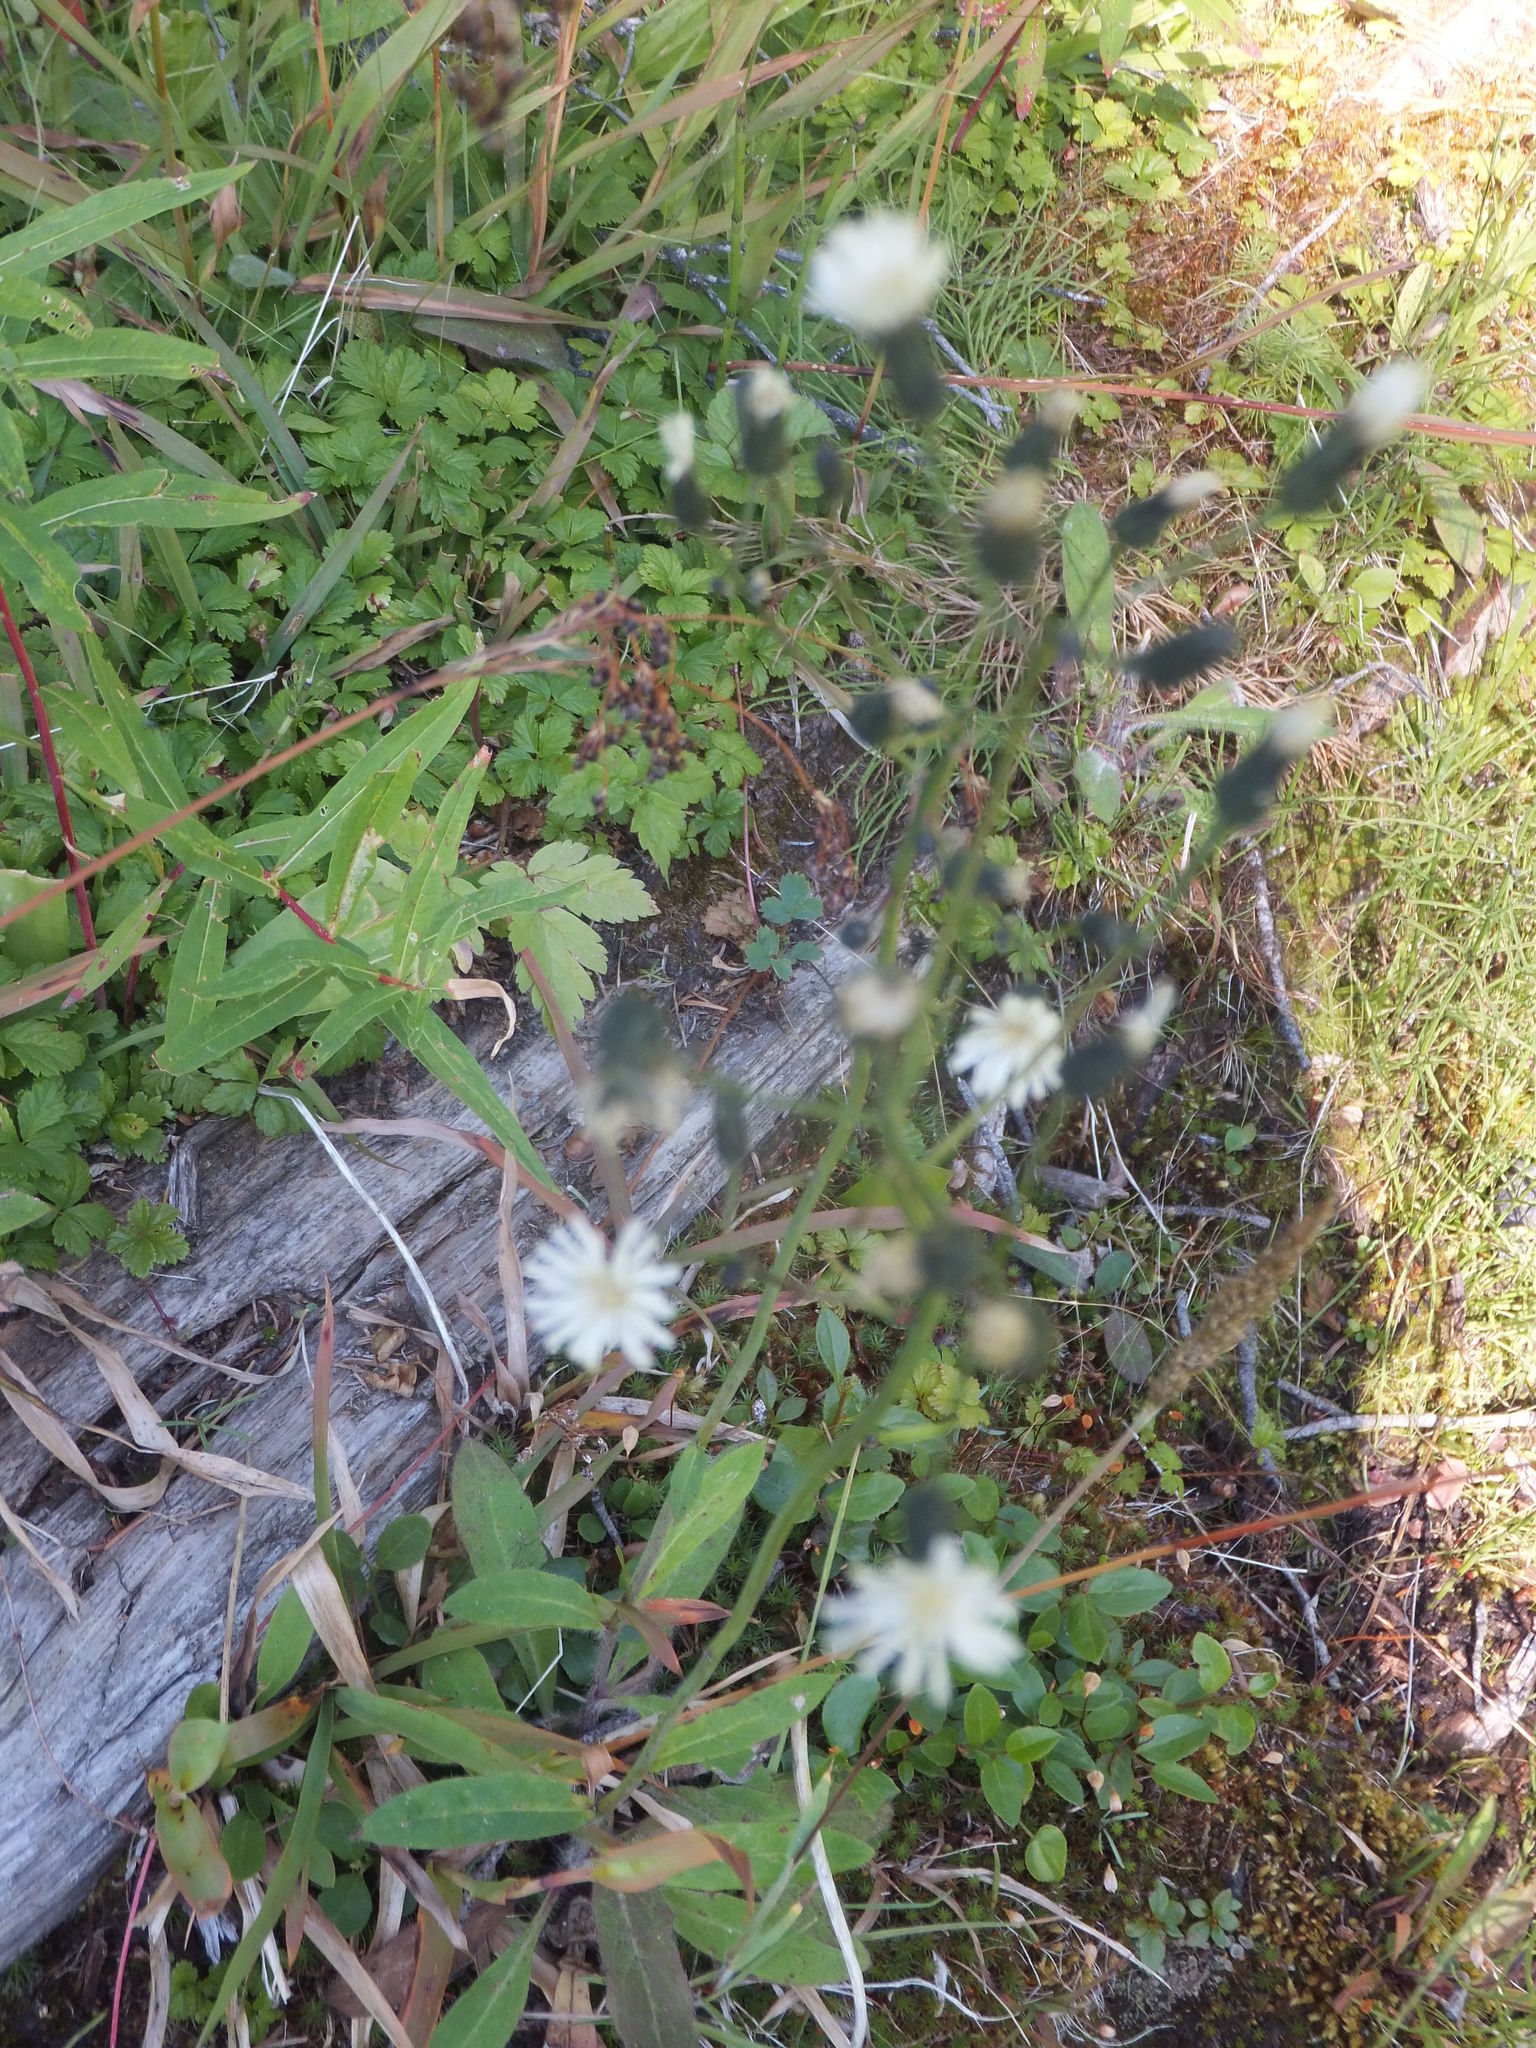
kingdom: Plantae
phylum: Tracheophyta
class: Magnoliopsida
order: Asterales
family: Asteraceae
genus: Hieracium
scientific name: Hieracium albiflorum
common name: White hawkweed
